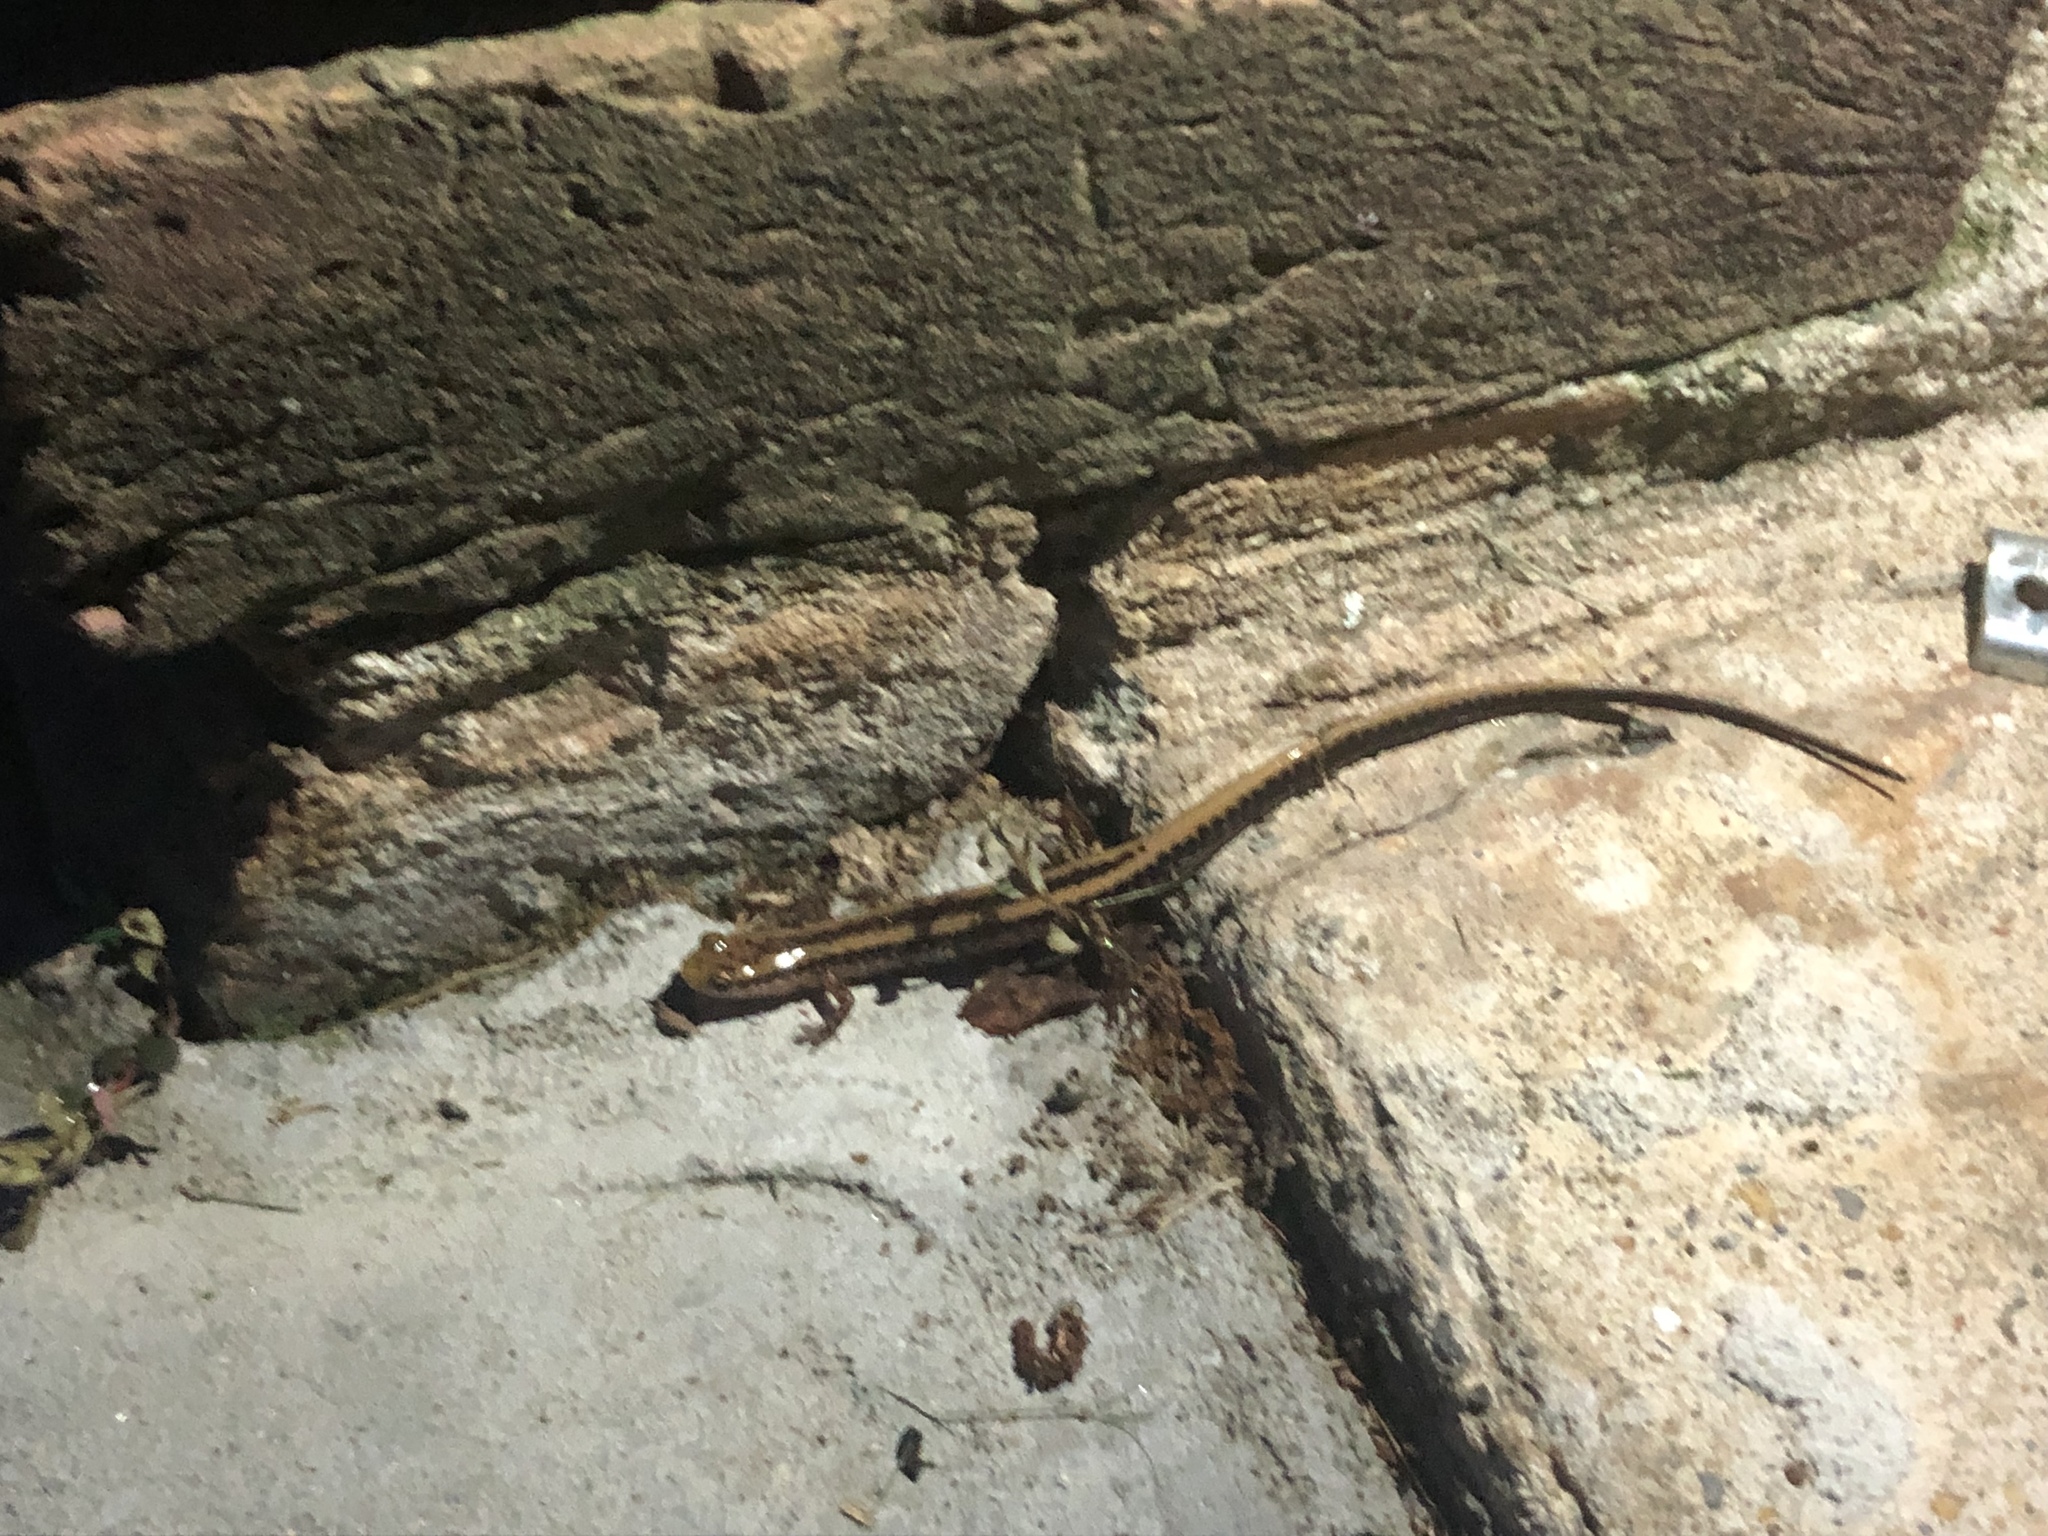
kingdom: Animalia
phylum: Chordata
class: Amphibia
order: Caudata
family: Plethodontidae
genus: Eurycea
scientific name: Eurycea guttolineata
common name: Three-lined salamander
